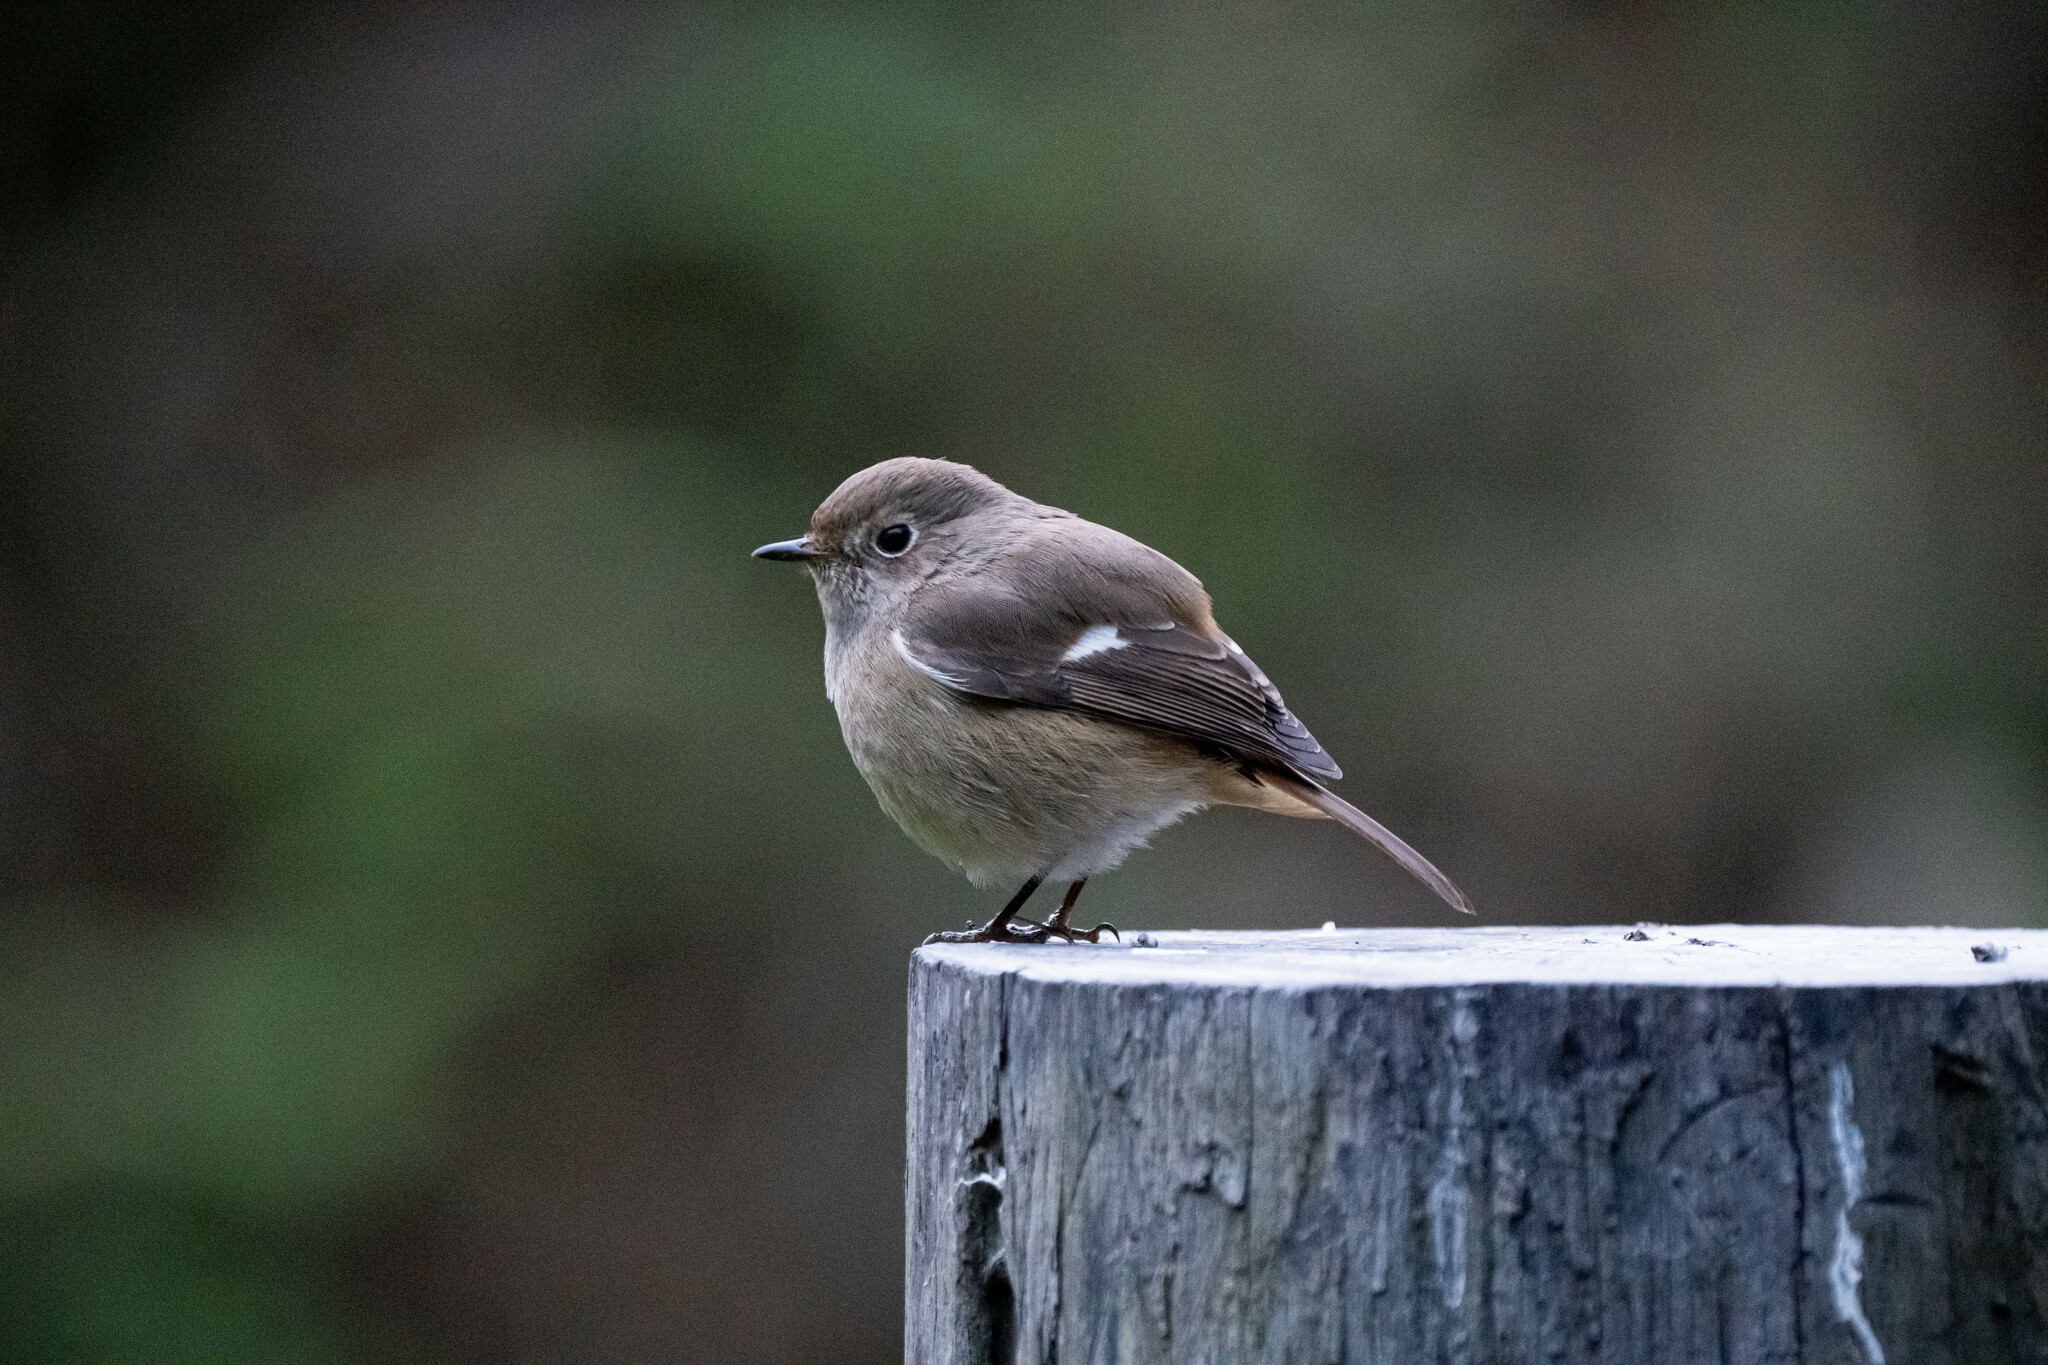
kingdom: Animalia
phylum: Chordata
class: Aves
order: Passeriformes
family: Muscicapidae
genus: Phoenicurus
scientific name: Phoenicurus auroreus
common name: Daurian redstart
